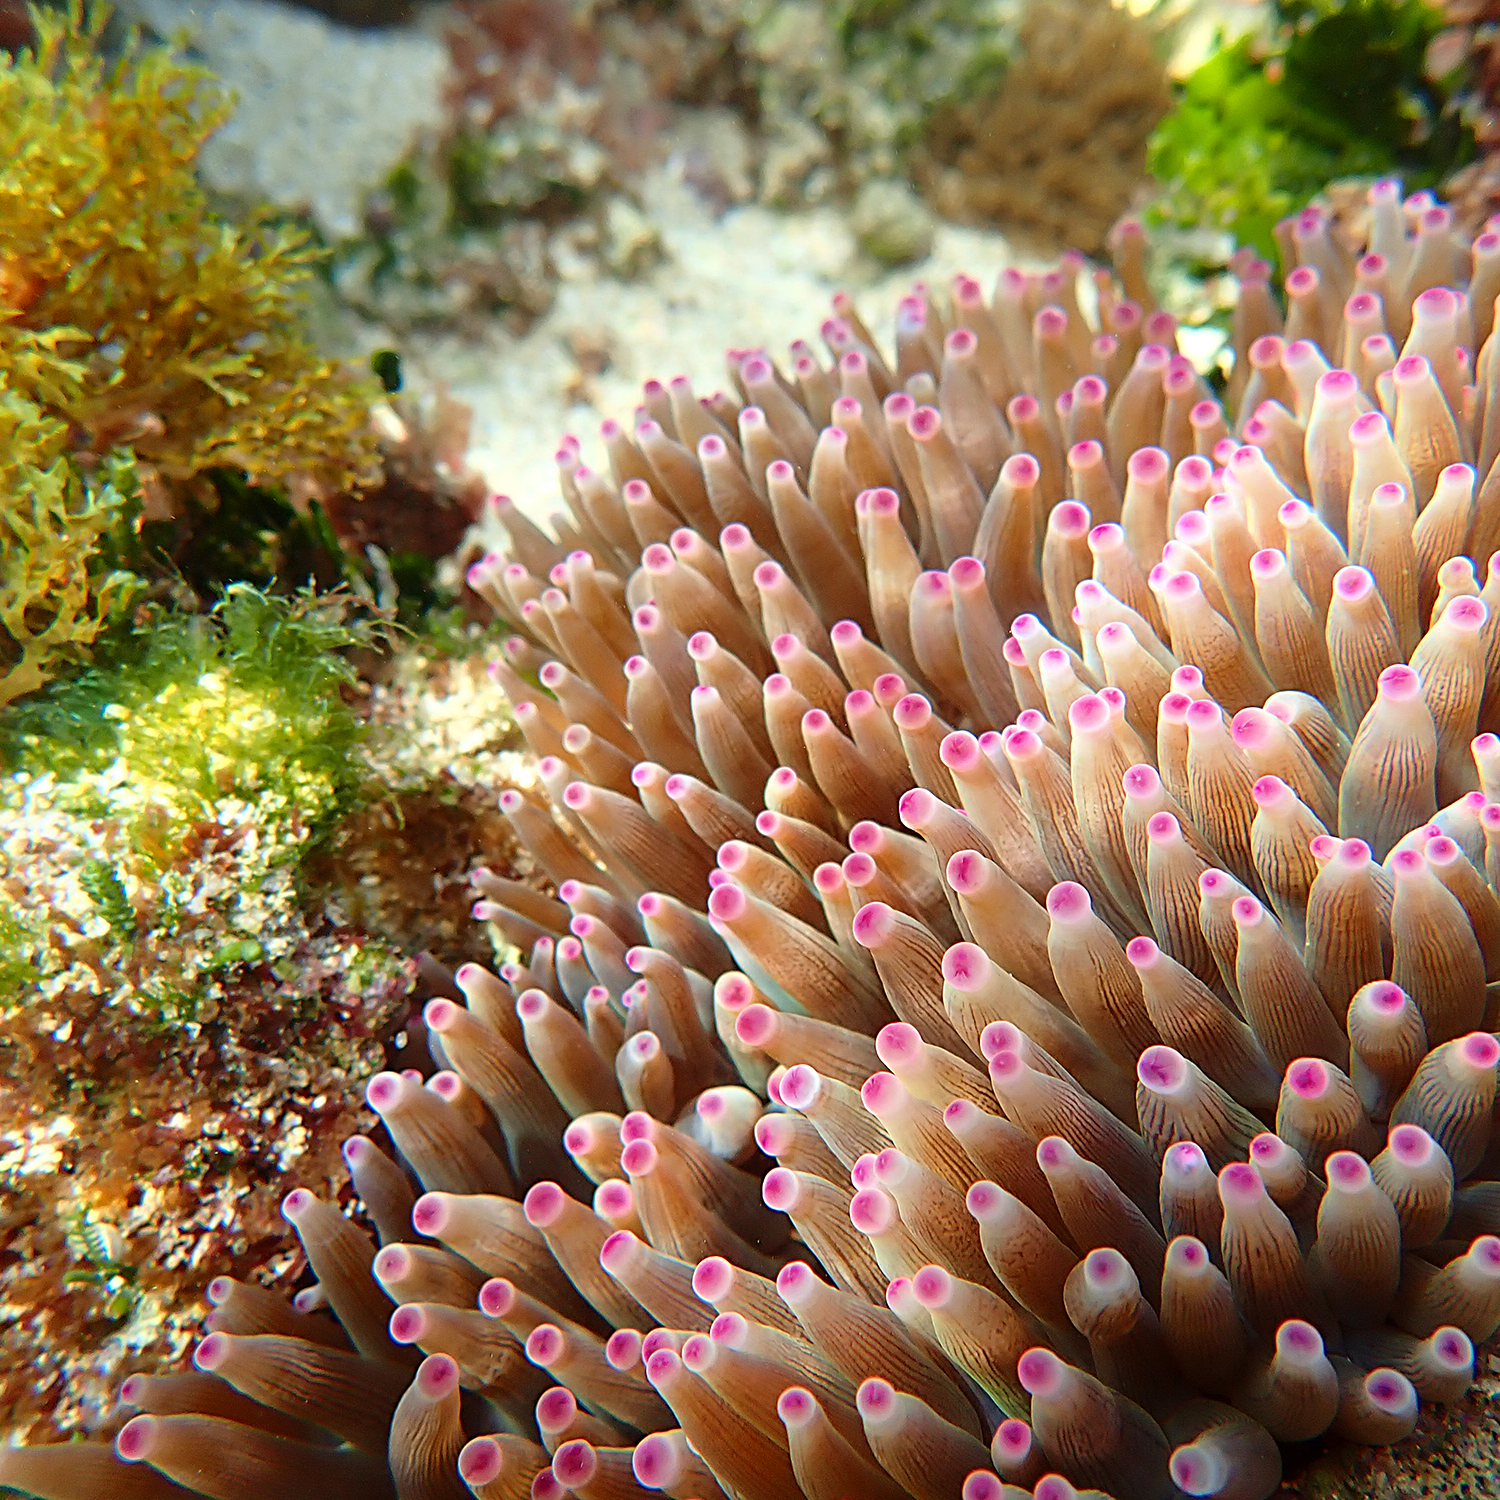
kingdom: Animalia
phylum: Cnidaria
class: Anthozoa
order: Actiniaria
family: Actiniidae
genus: Entacmaea
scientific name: Entacmaea quadricolor
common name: Bulb tentacle sea anemone
